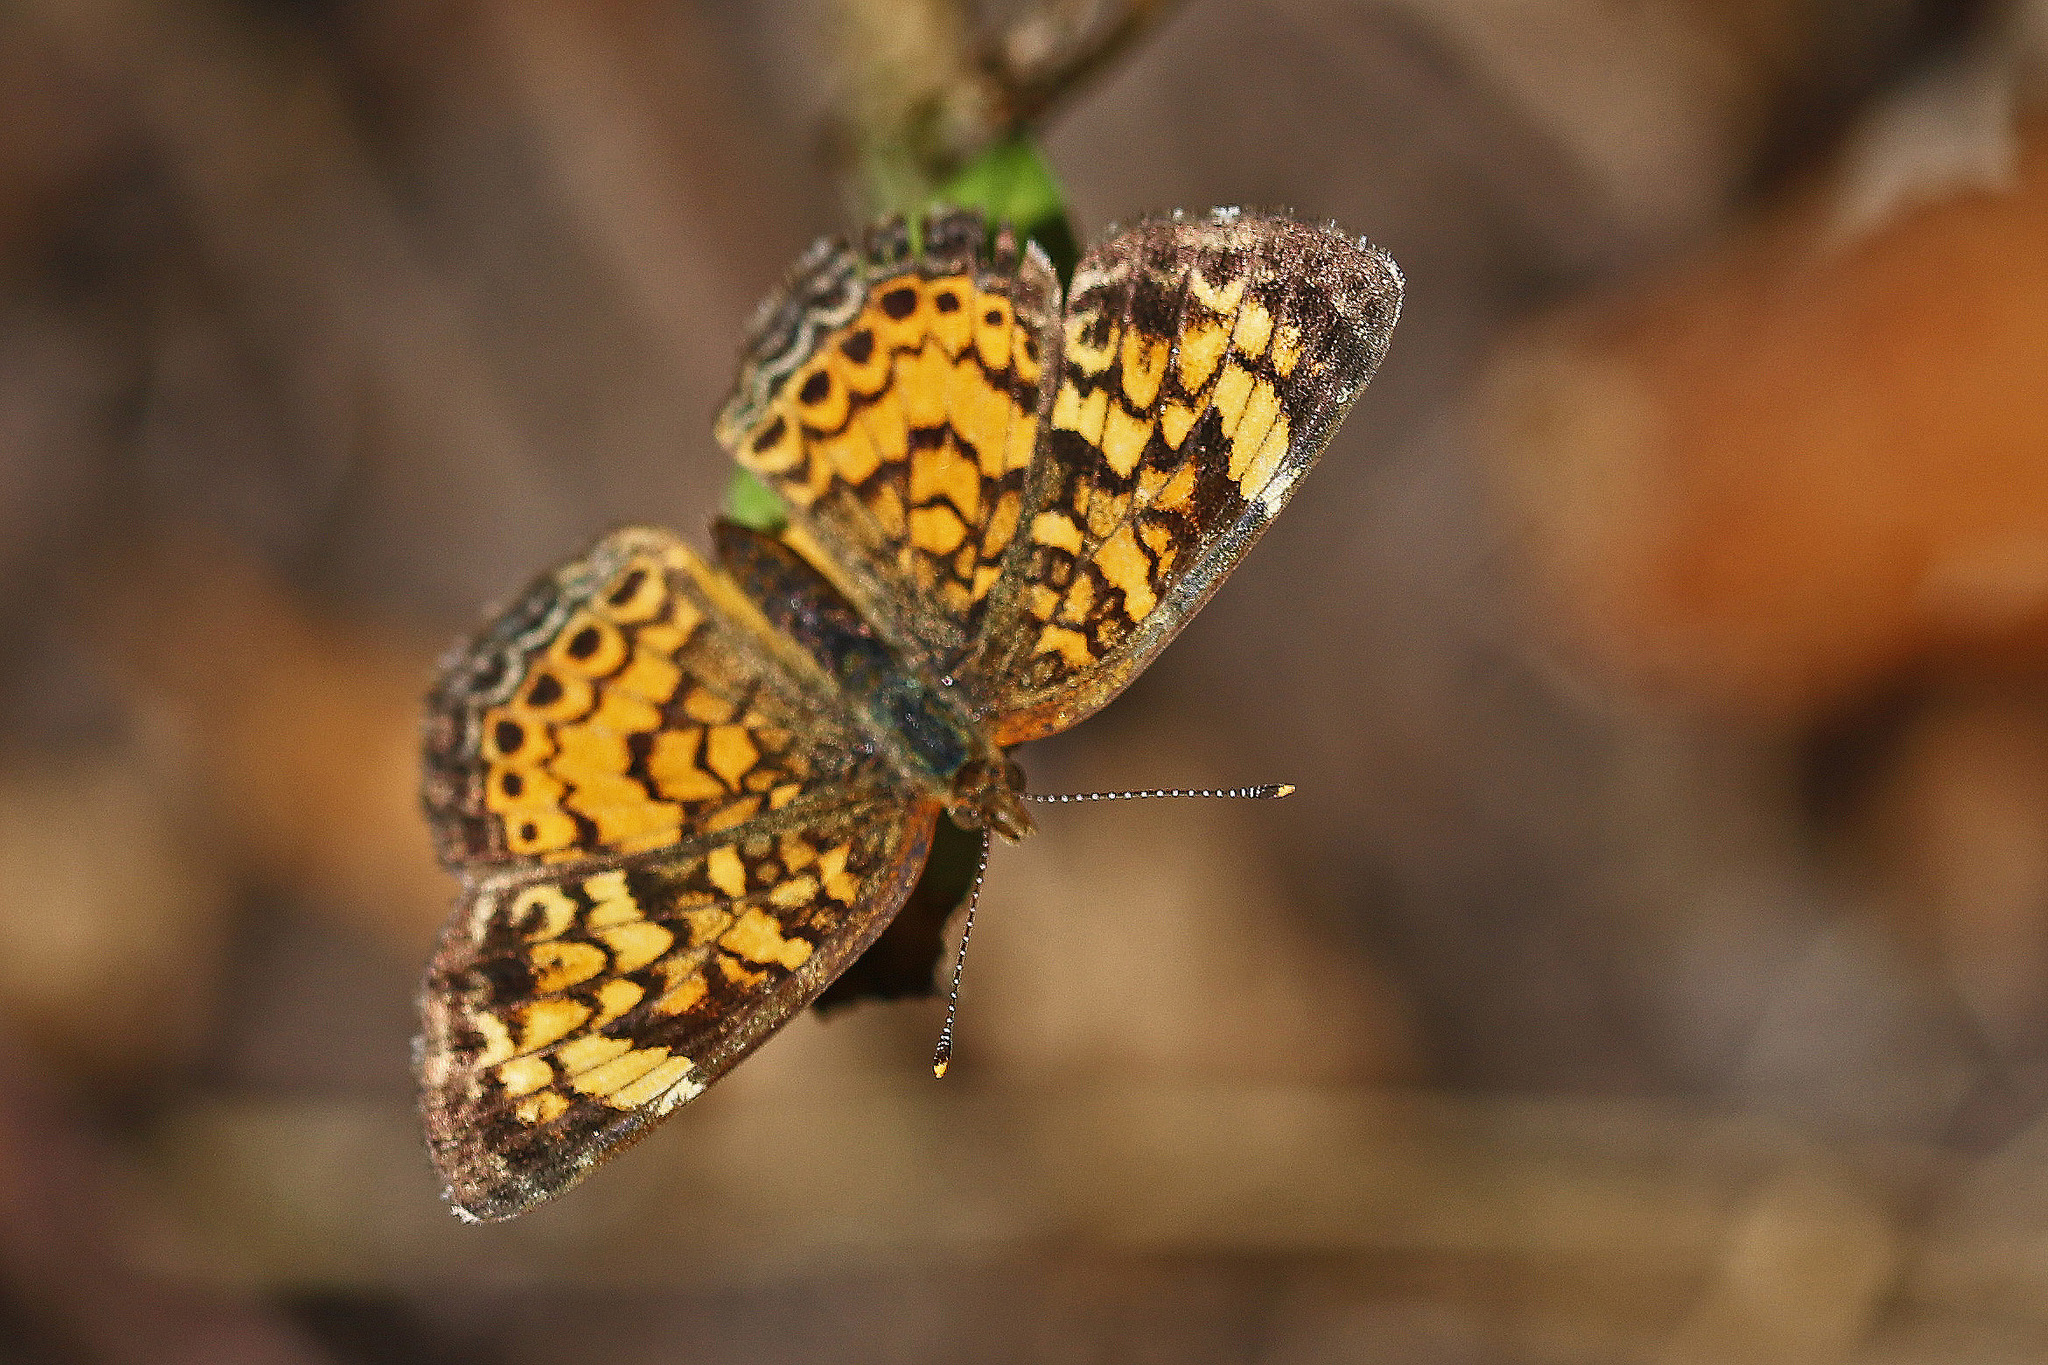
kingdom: Animalia
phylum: Arthropoda
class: Insecta
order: Lepidoptera
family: Nymphalidae
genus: Phyciodes
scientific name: Phyciodes tharos
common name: Pearl crescent
